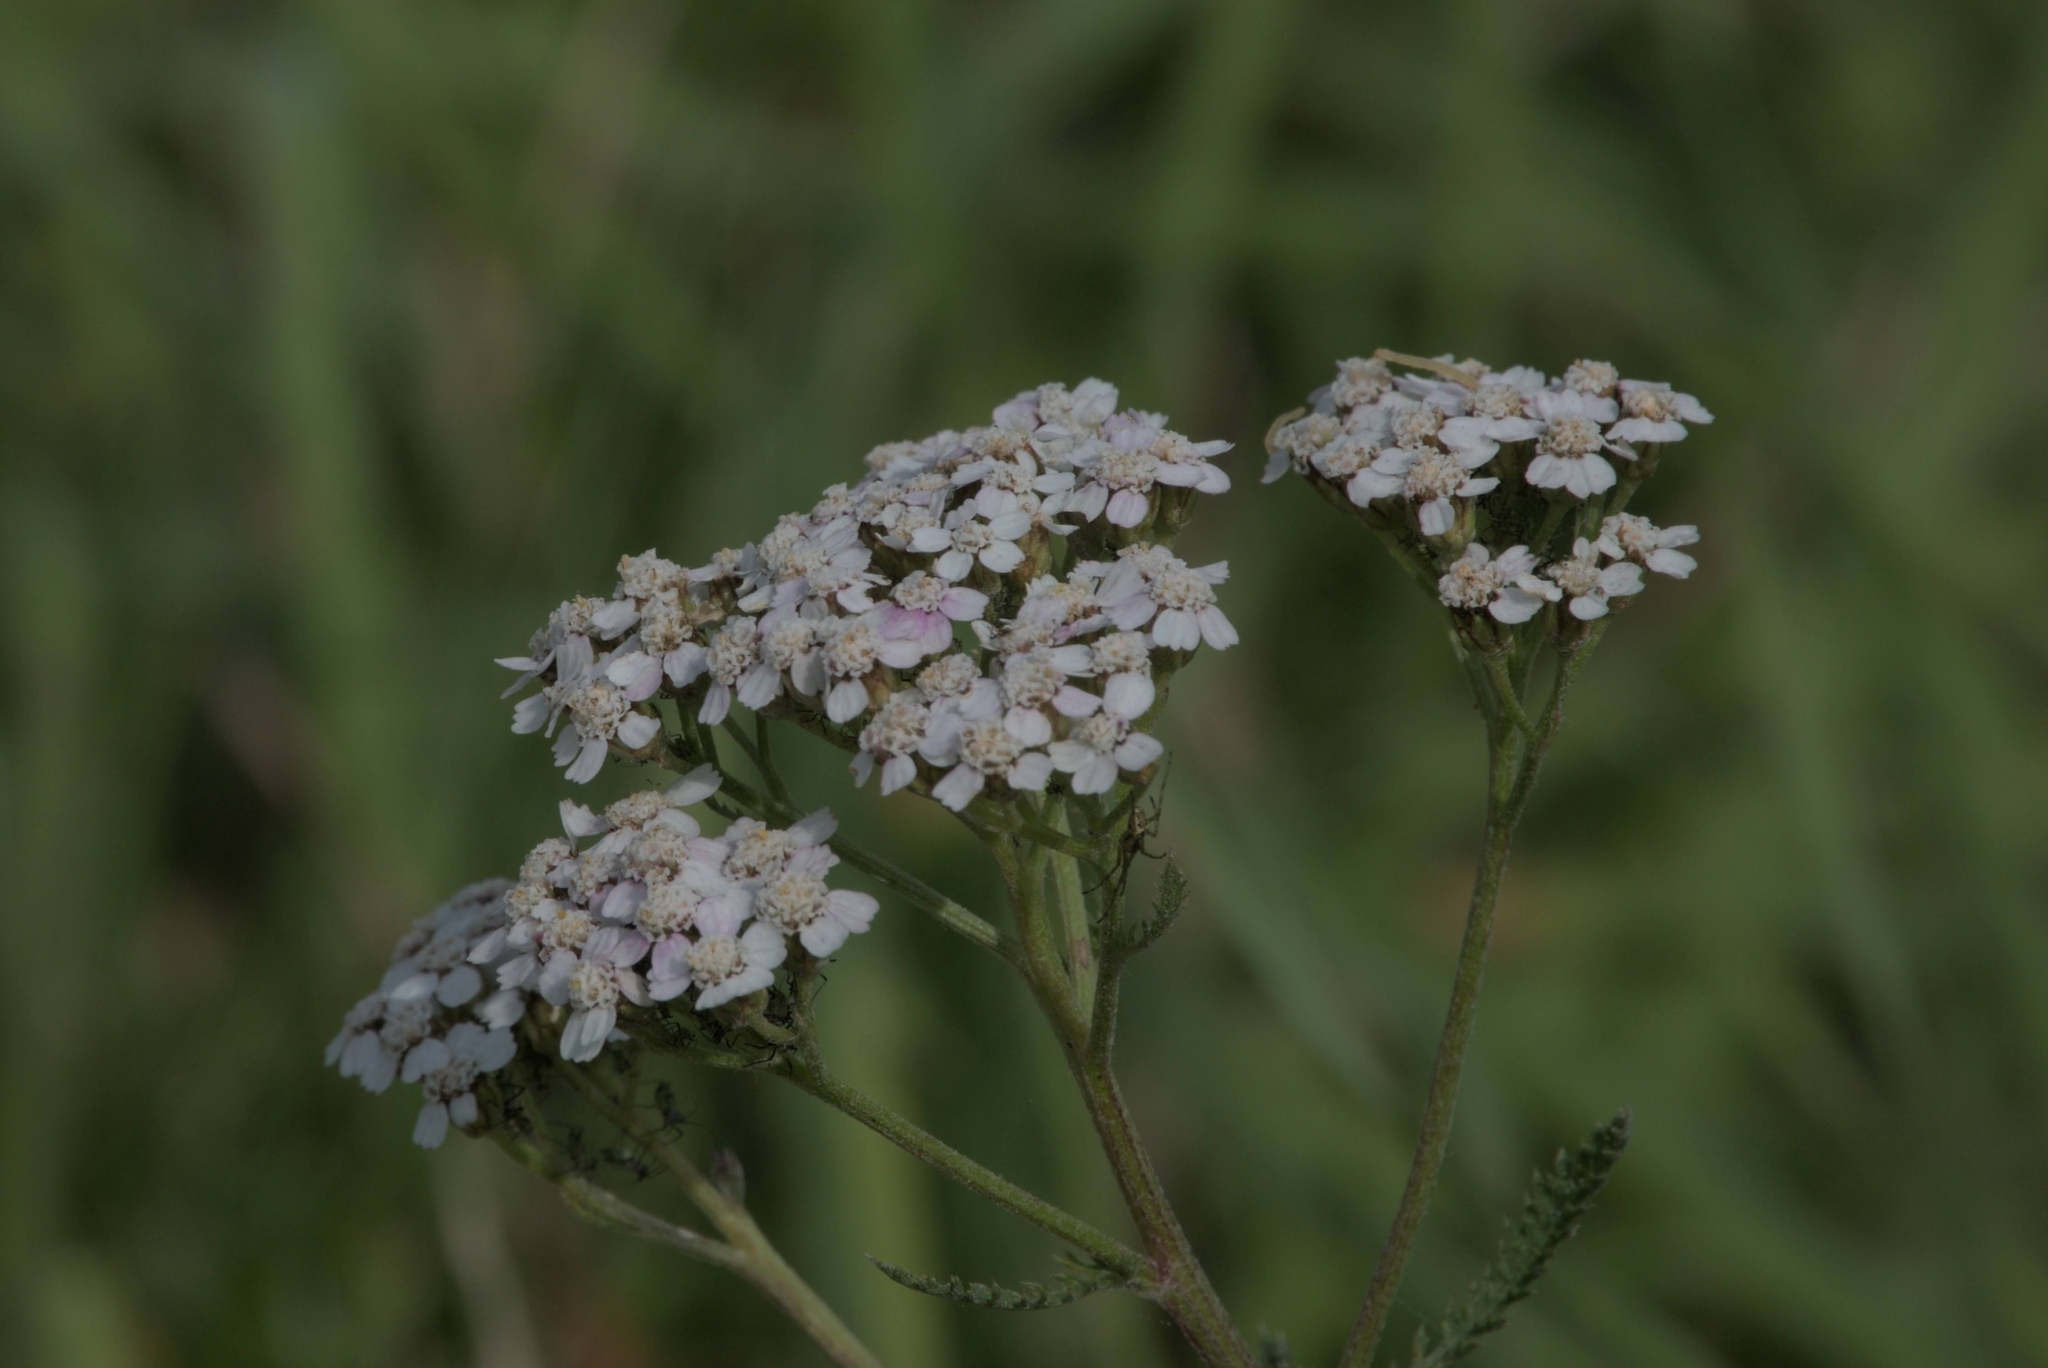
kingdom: Plantae
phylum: Tracheophyta
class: Magnoliopsida
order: Asterales
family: Asteraceae
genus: Achillea
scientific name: Achillea millefolium
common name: Yarrow
